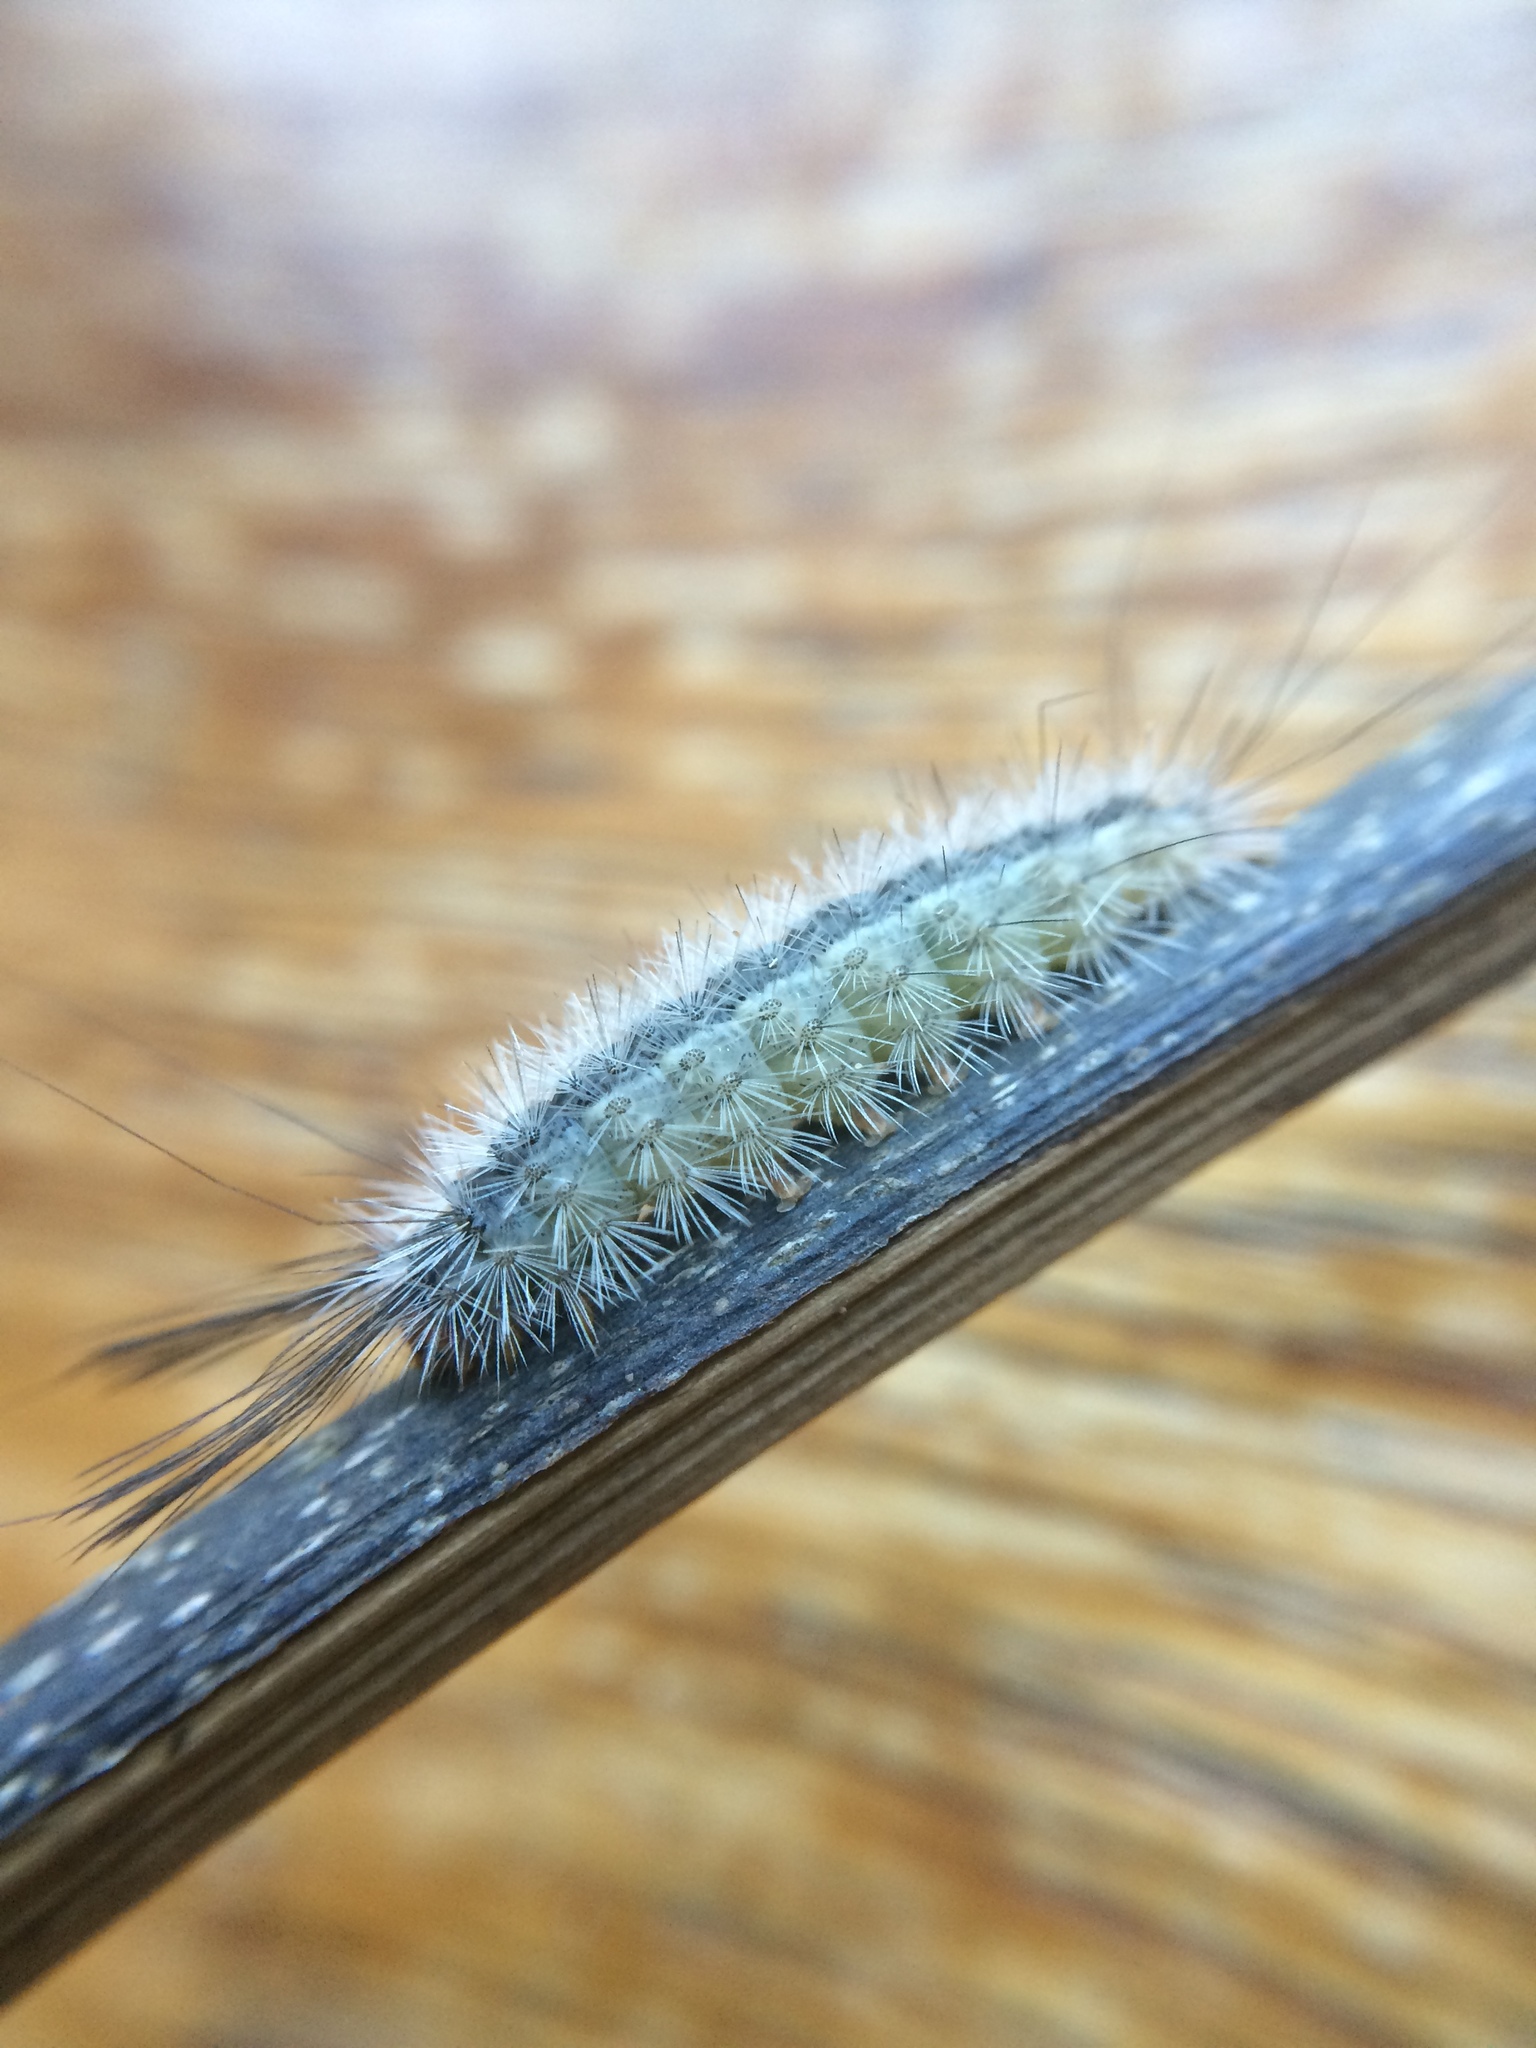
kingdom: Animalia
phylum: Arthropoda
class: Insecta
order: Lepidoptera
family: Erebidae
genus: Galtara
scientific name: Galtara rostrata
